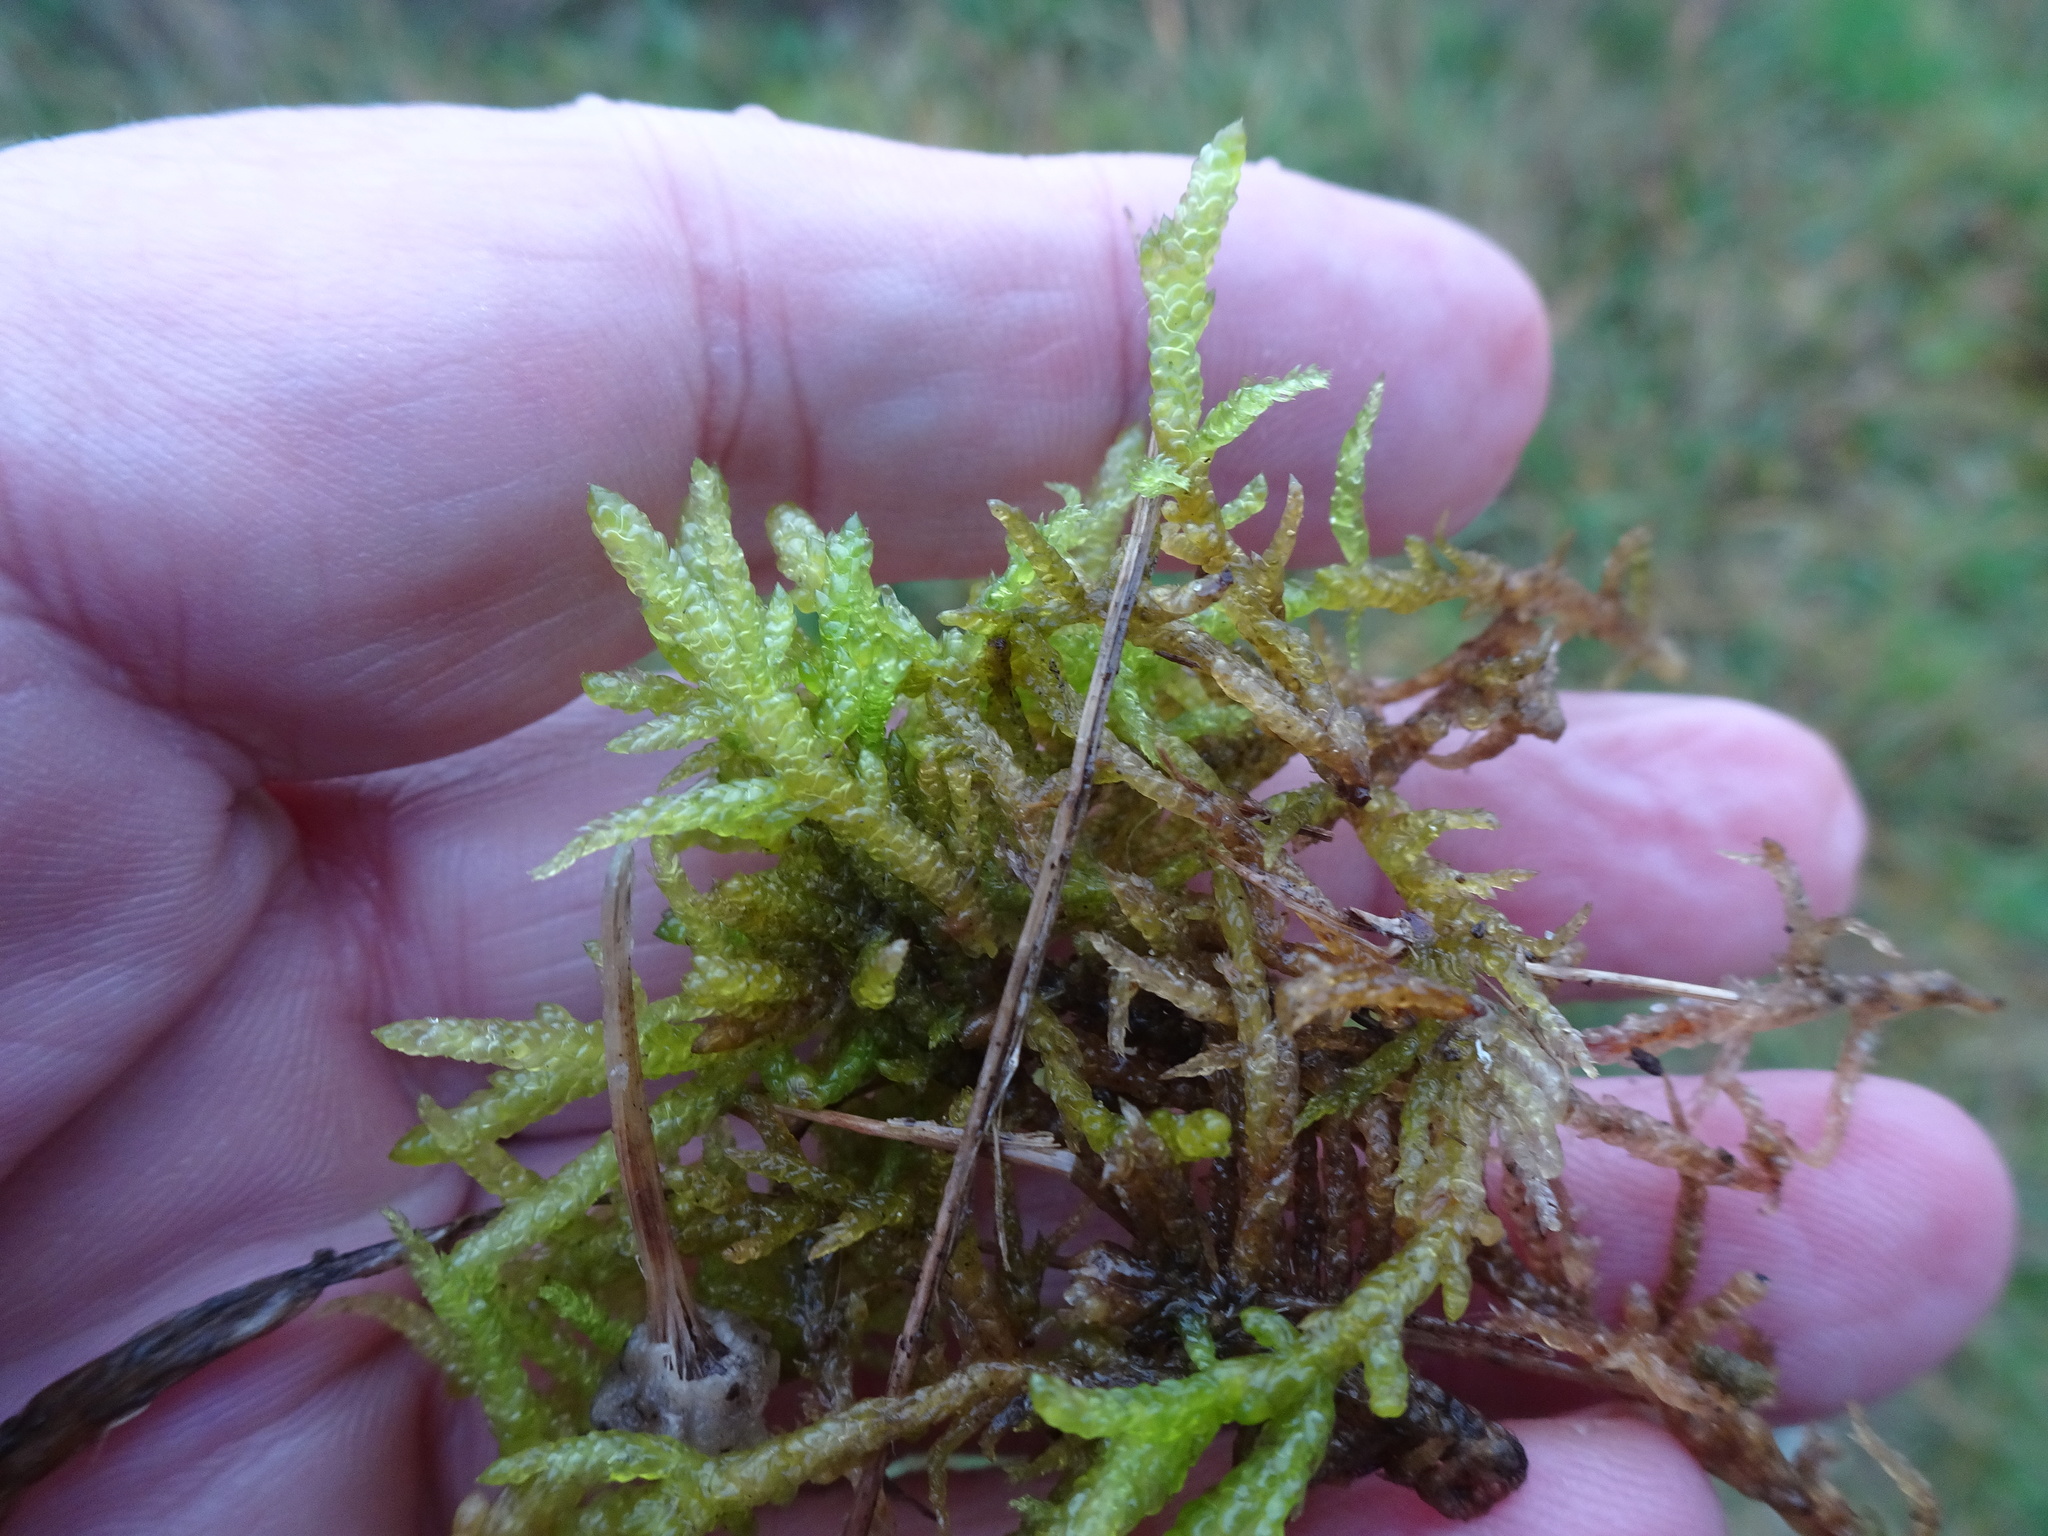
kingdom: Plantae
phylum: Bryophyta
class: Bryopsida
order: Hypnales
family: Brachytheciaceae
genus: Pseudoscleropodium
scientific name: Pseudoscleropodium purum
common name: Neat feather-moss
